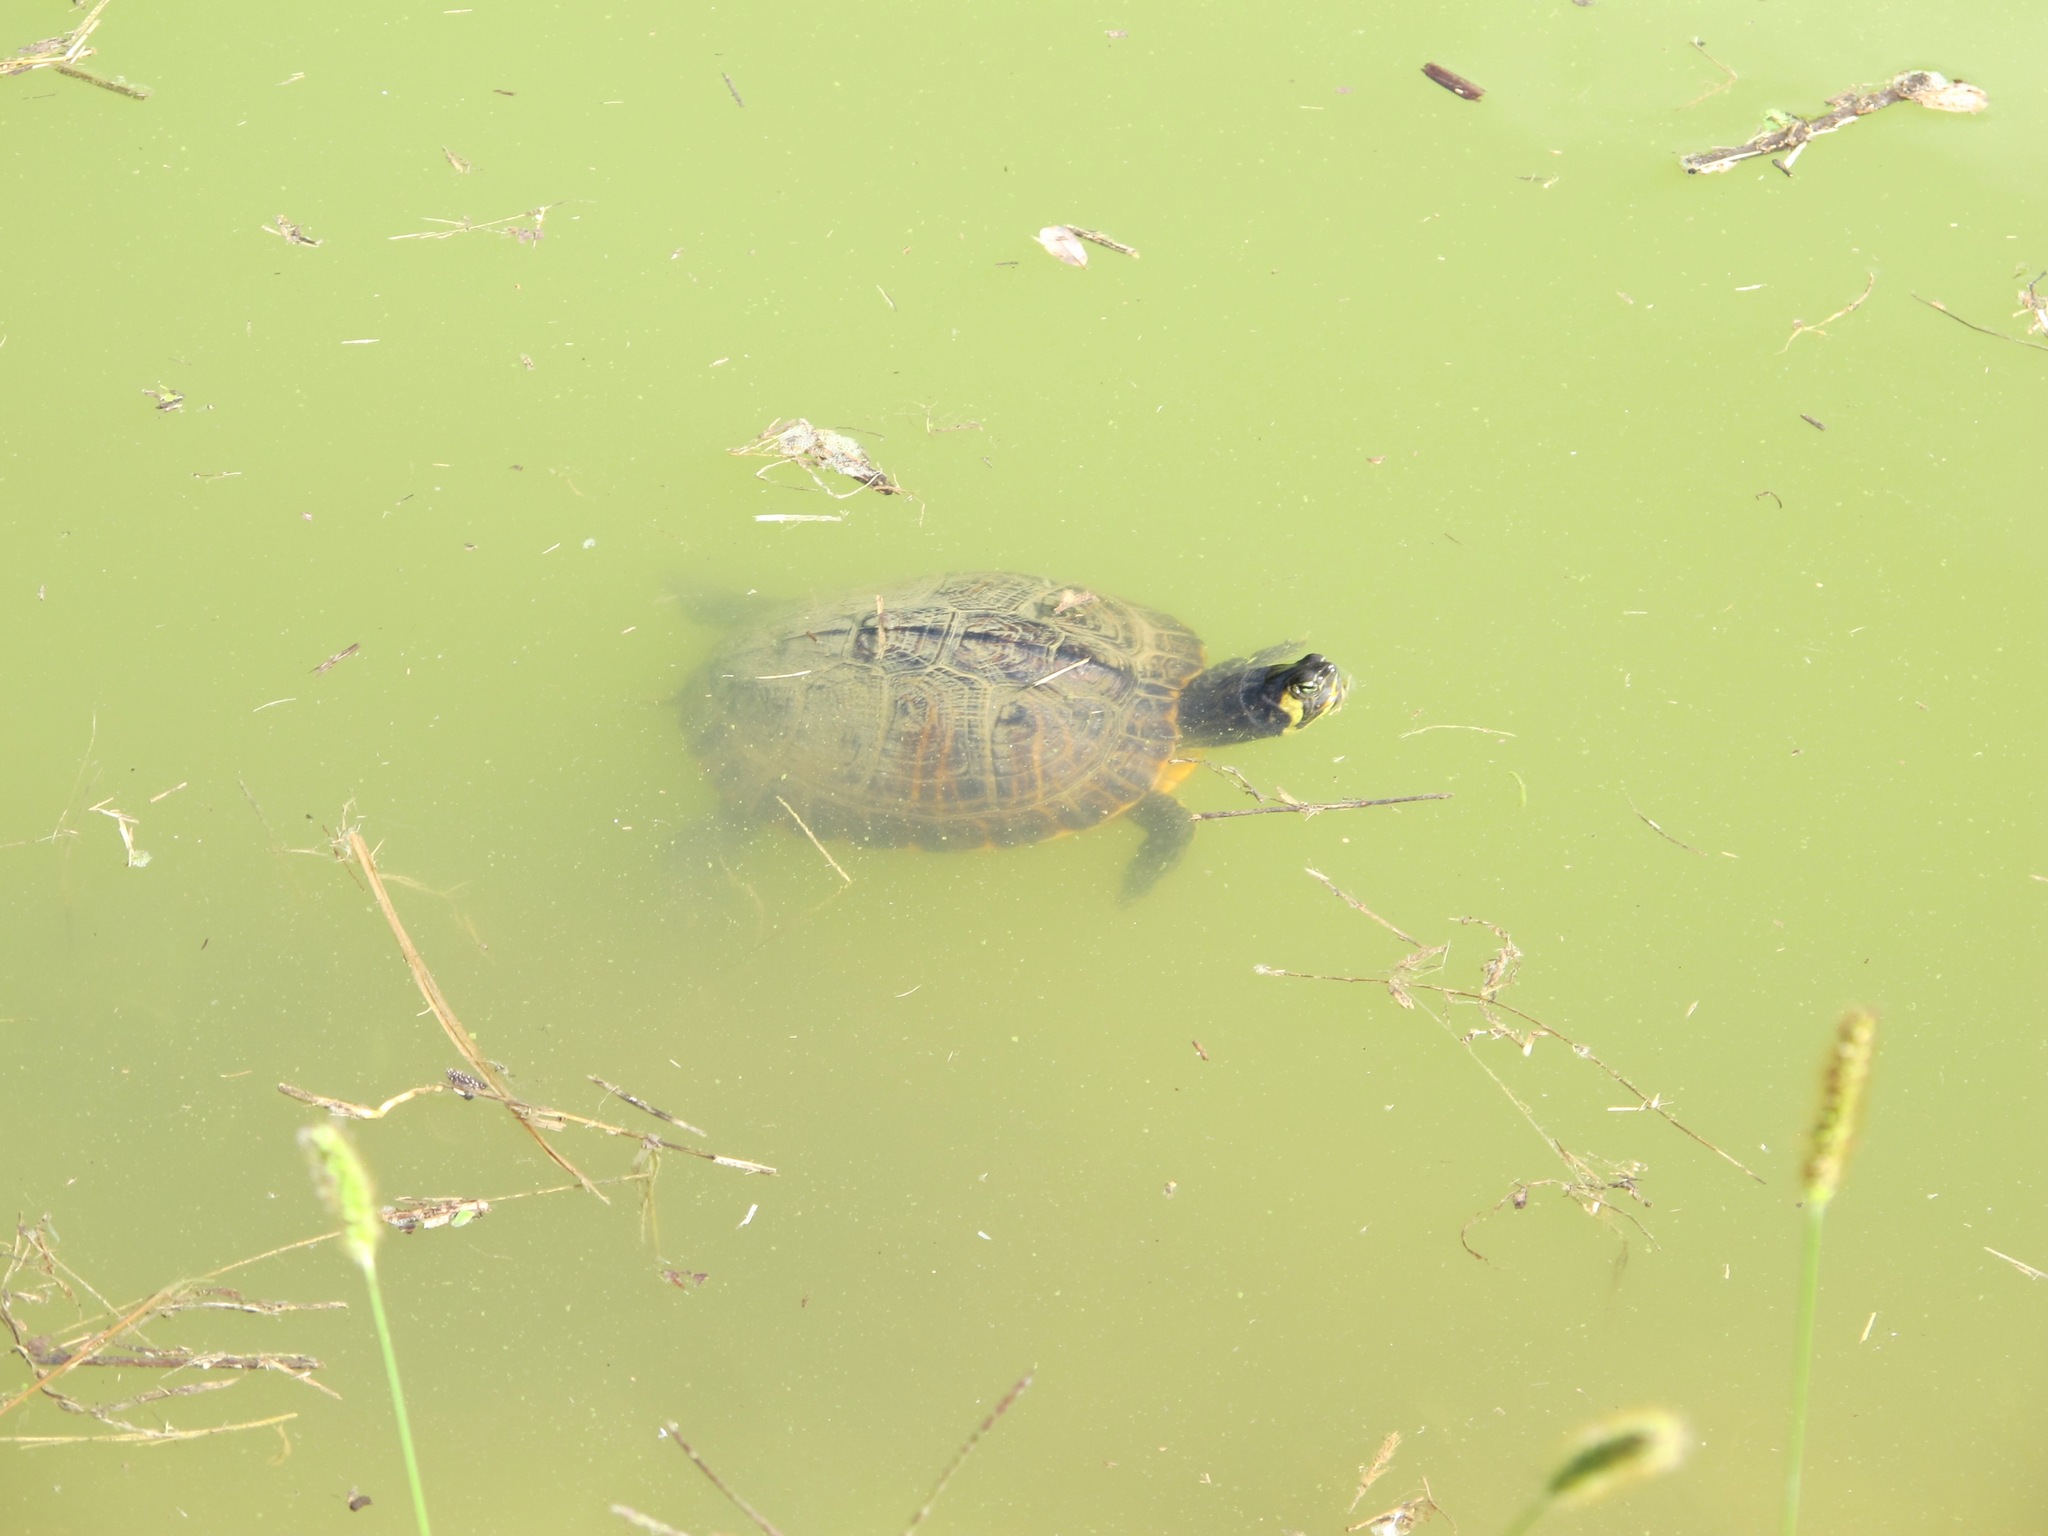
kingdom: Animalia
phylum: Chordata
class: Testudines
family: Emydidae
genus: Trachemys
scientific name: Trachemys scripta
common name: Slider
